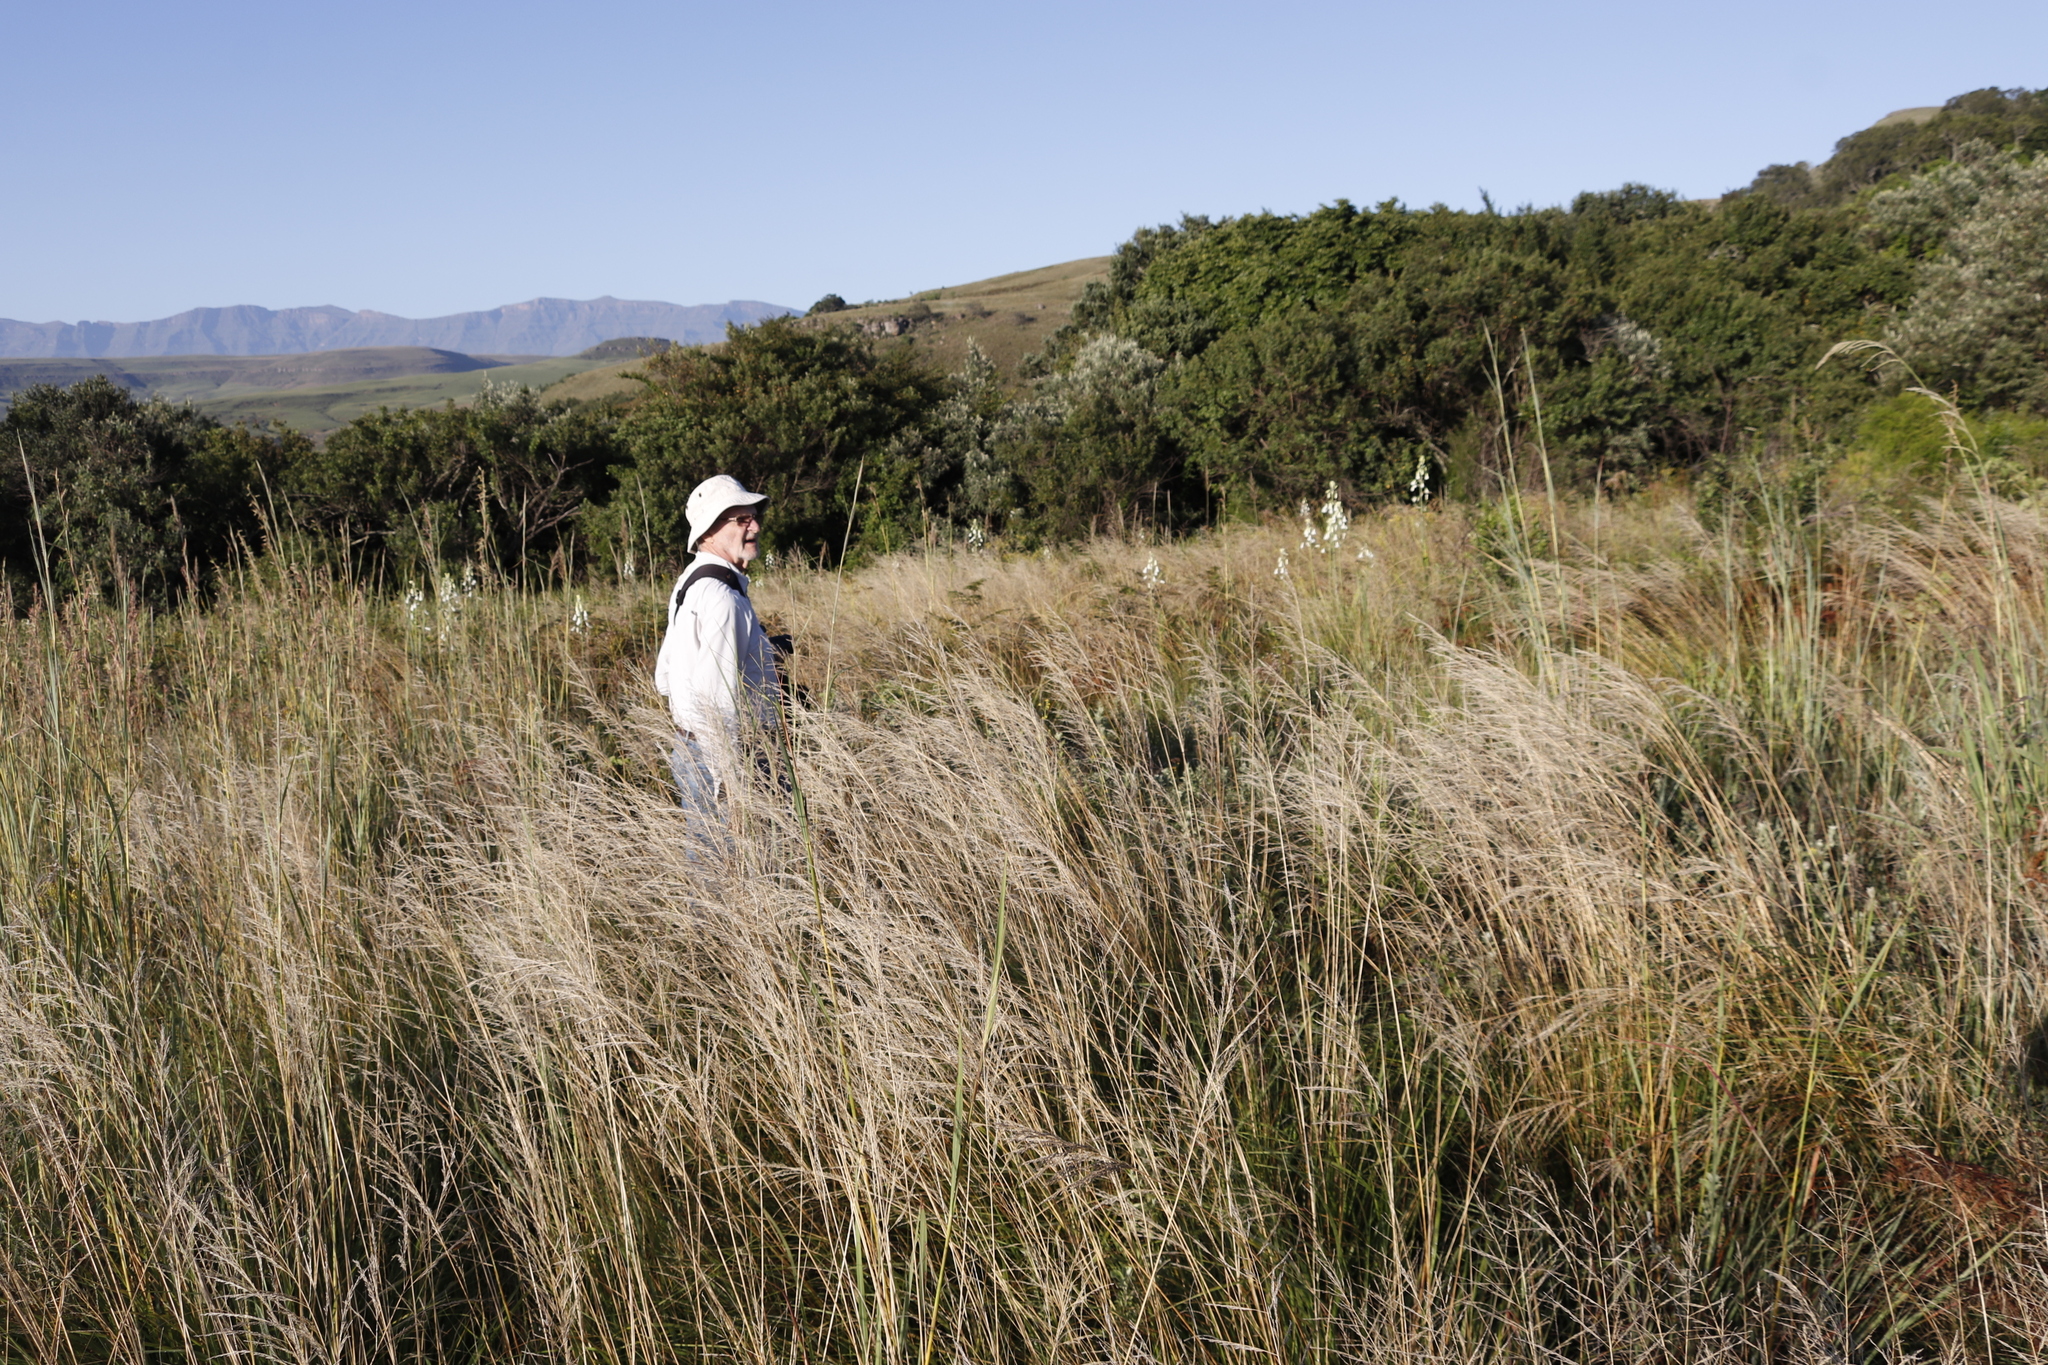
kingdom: Plantae
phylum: Tracheophyta
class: Liliopsida
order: Asparagales
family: Asparagaceae
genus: Ornithogalum
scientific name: Ornithogalum candicans
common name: Summer-hyacinth
